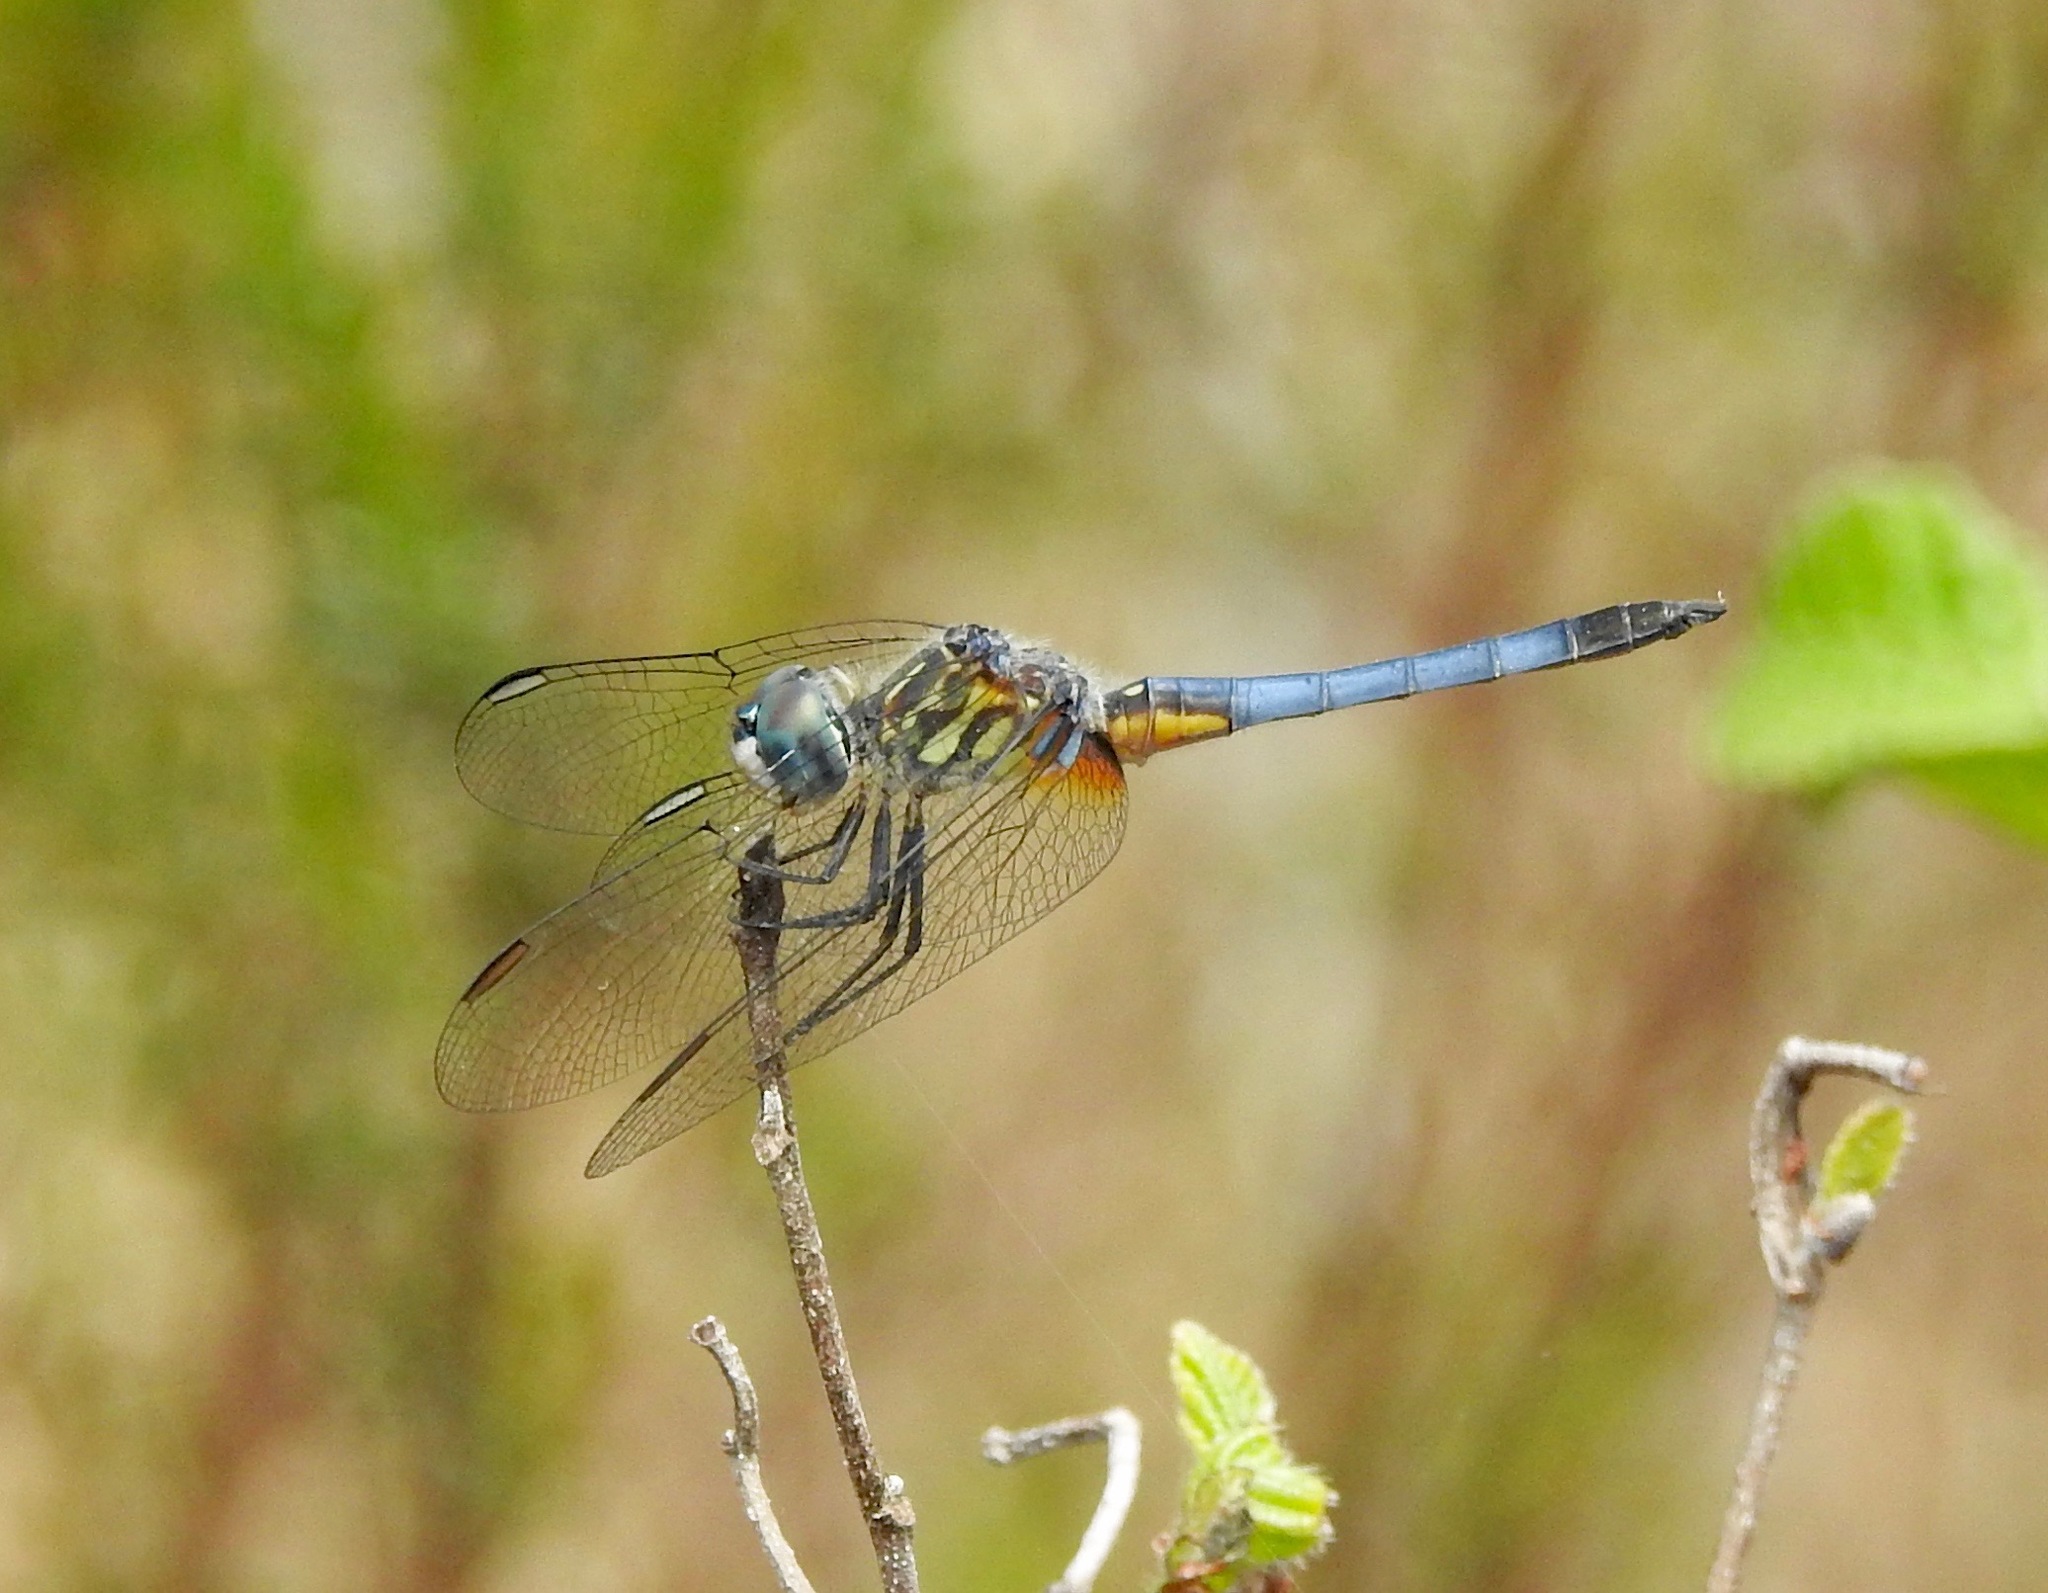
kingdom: Animalia
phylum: Arthropoda
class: Insecta
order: Odonata
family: Libellulidae
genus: Pachydiplax
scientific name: Pachydiplax longipennis
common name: Blue dasher
